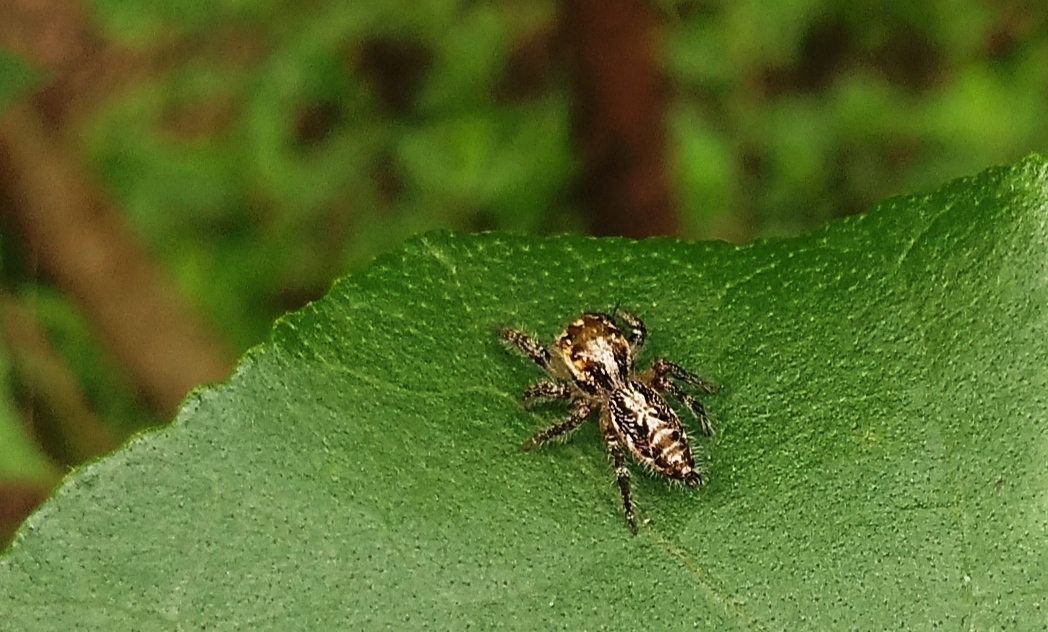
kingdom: Animalia
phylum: Arthropoda
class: Arachnida
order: Araneae
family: Salticidae
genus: Hyllus
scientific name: Hyllus semicupreus
